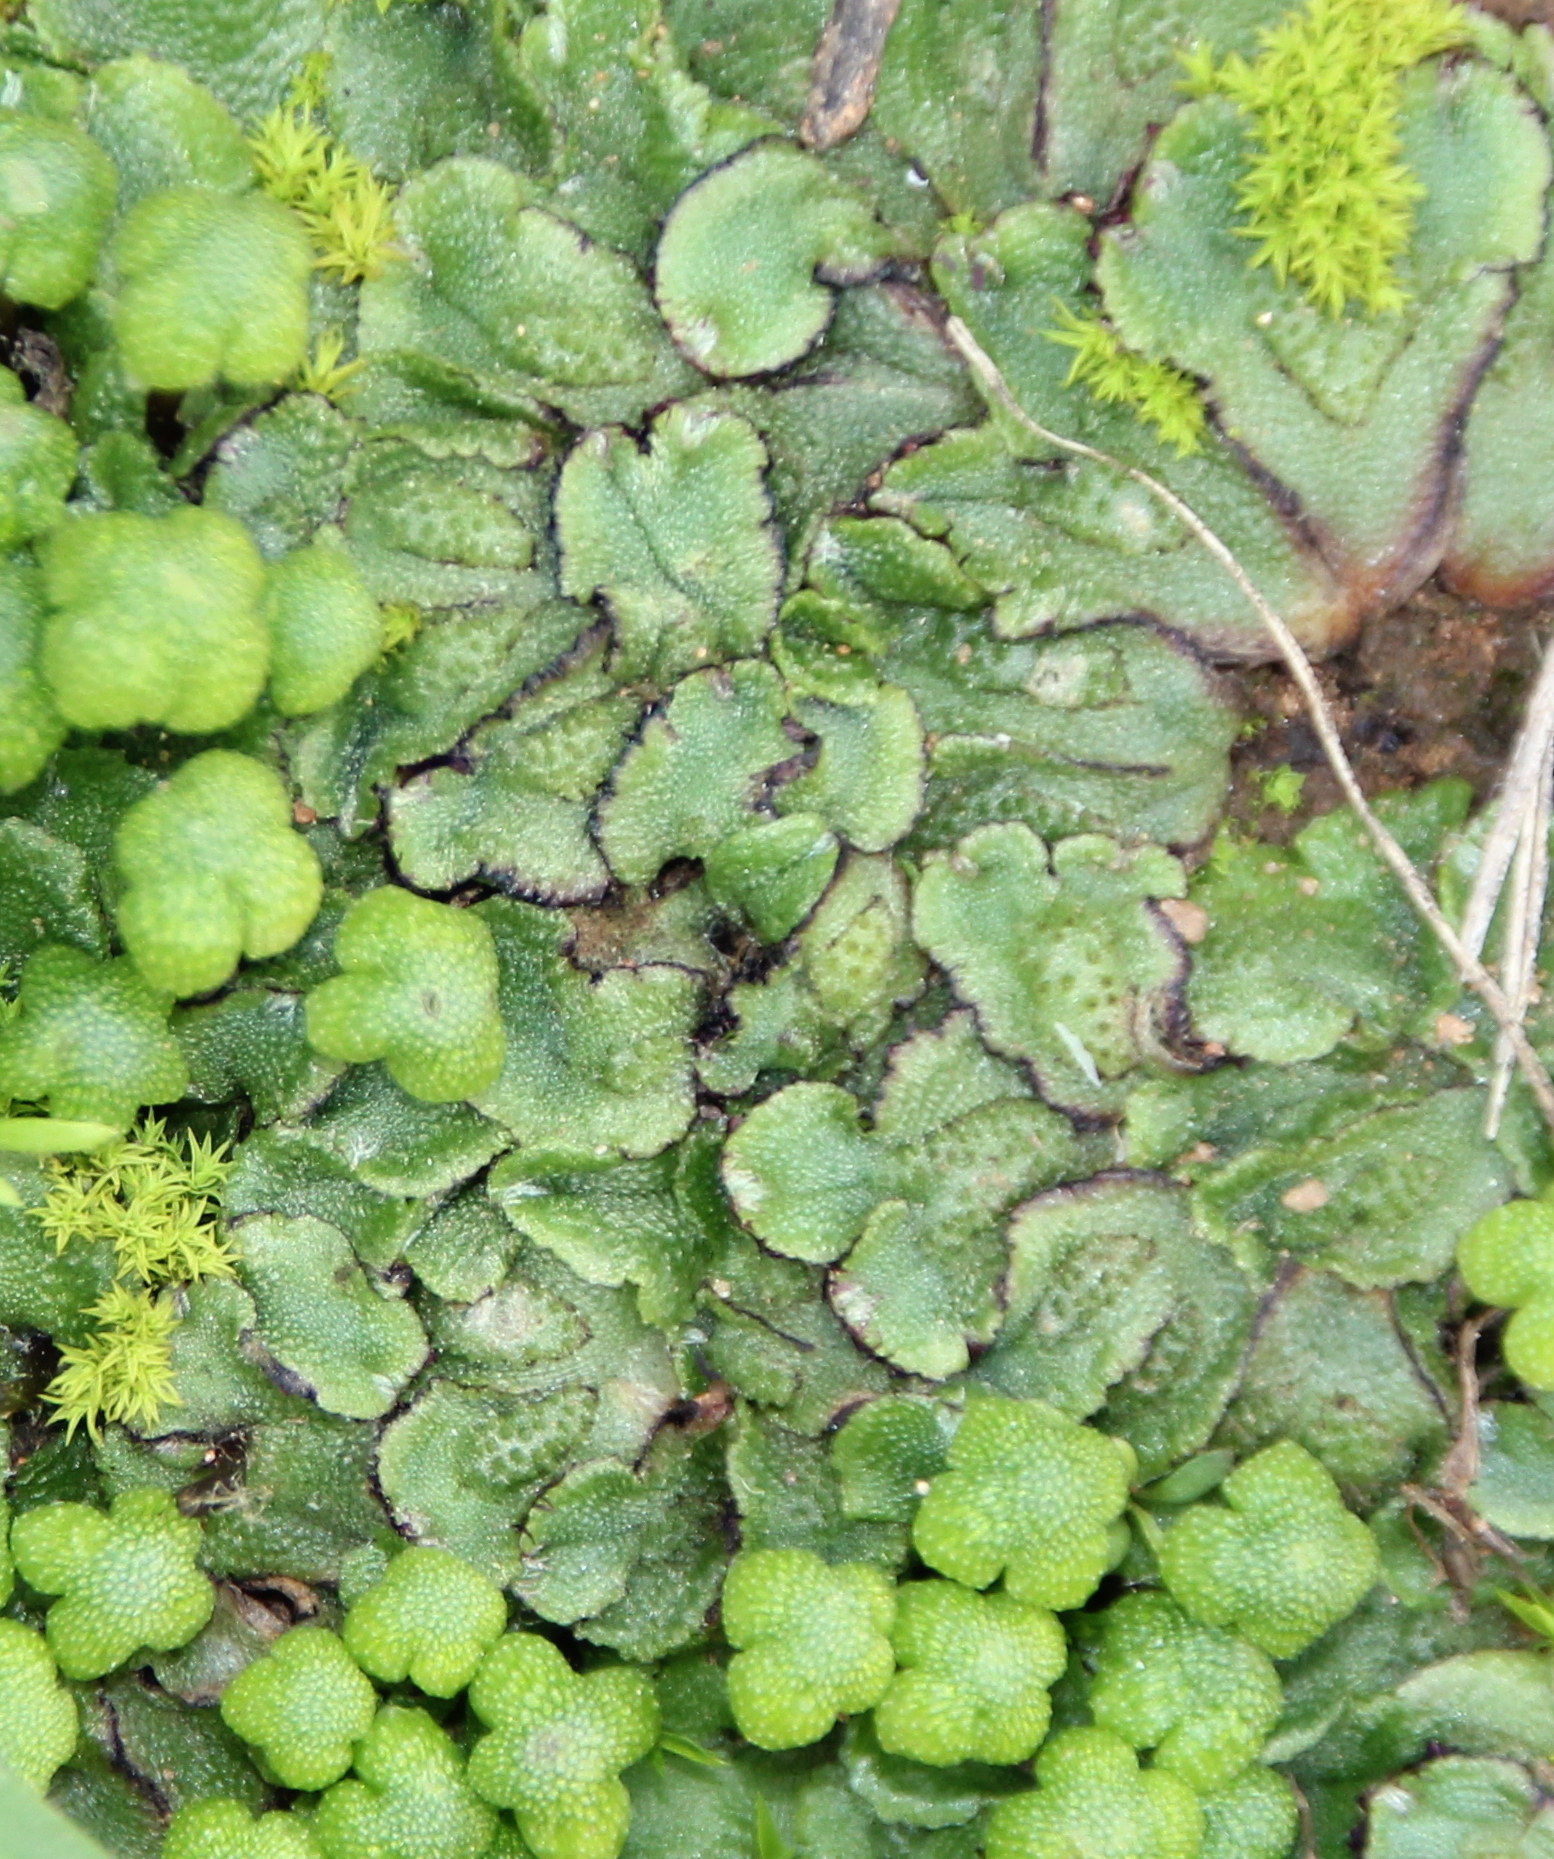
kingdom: Plantae
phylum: Marchantiophyta
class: Marchantiopsida
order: Marchantiales
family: Aytoniaceae
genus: Asterella
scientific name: Asterella californica
